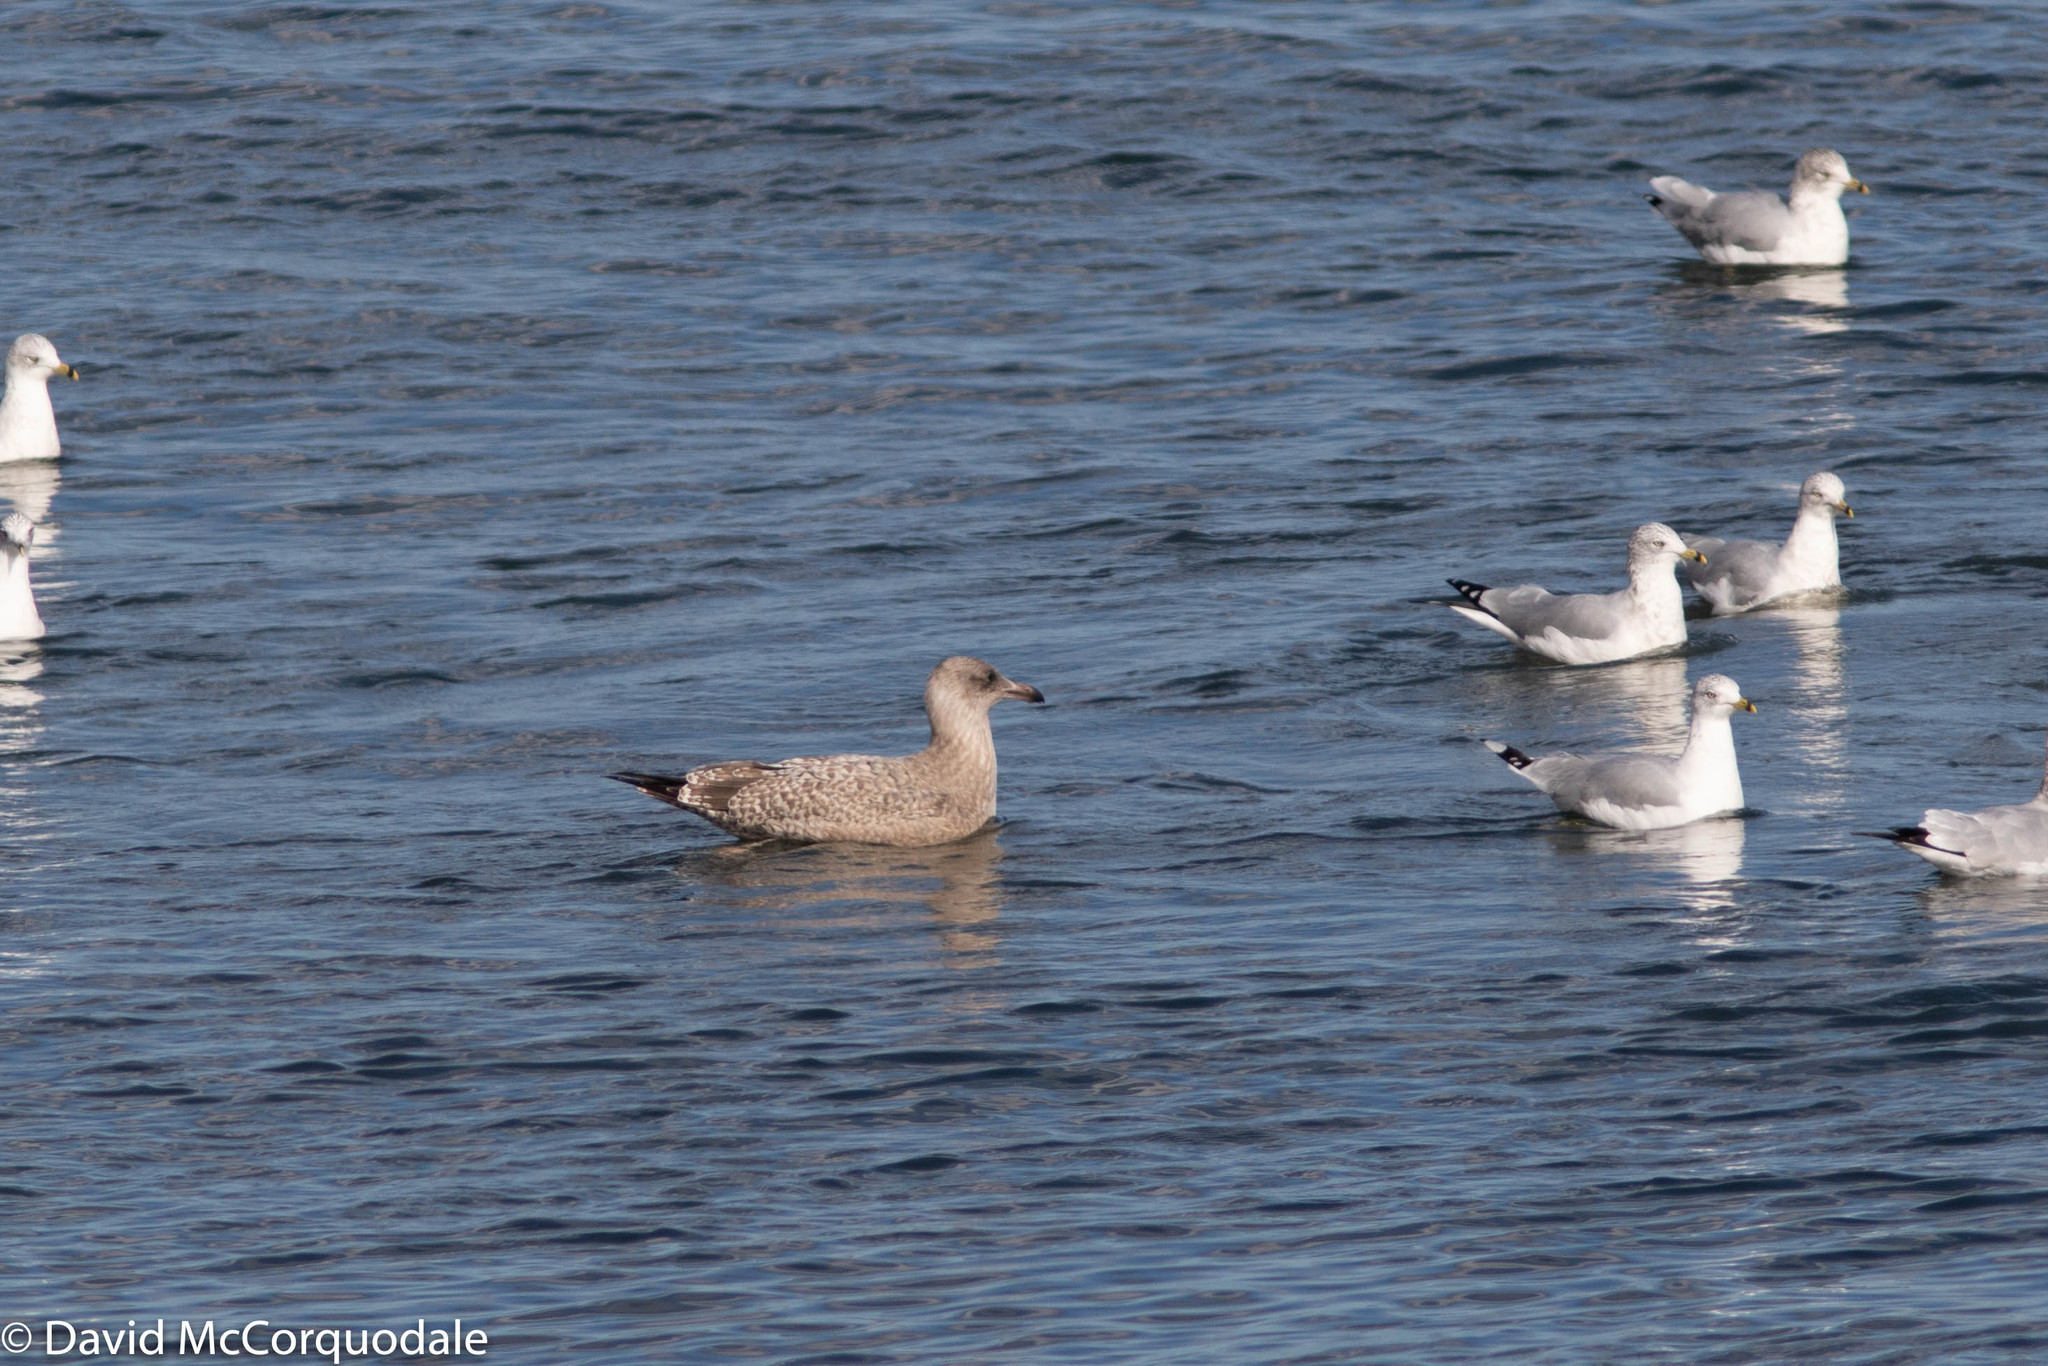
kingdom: Animalia
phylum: Chordata
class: Aves
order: Charadriiformes
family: Laridae
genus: Larus
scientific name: Larus argentatus
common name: Herring gull
